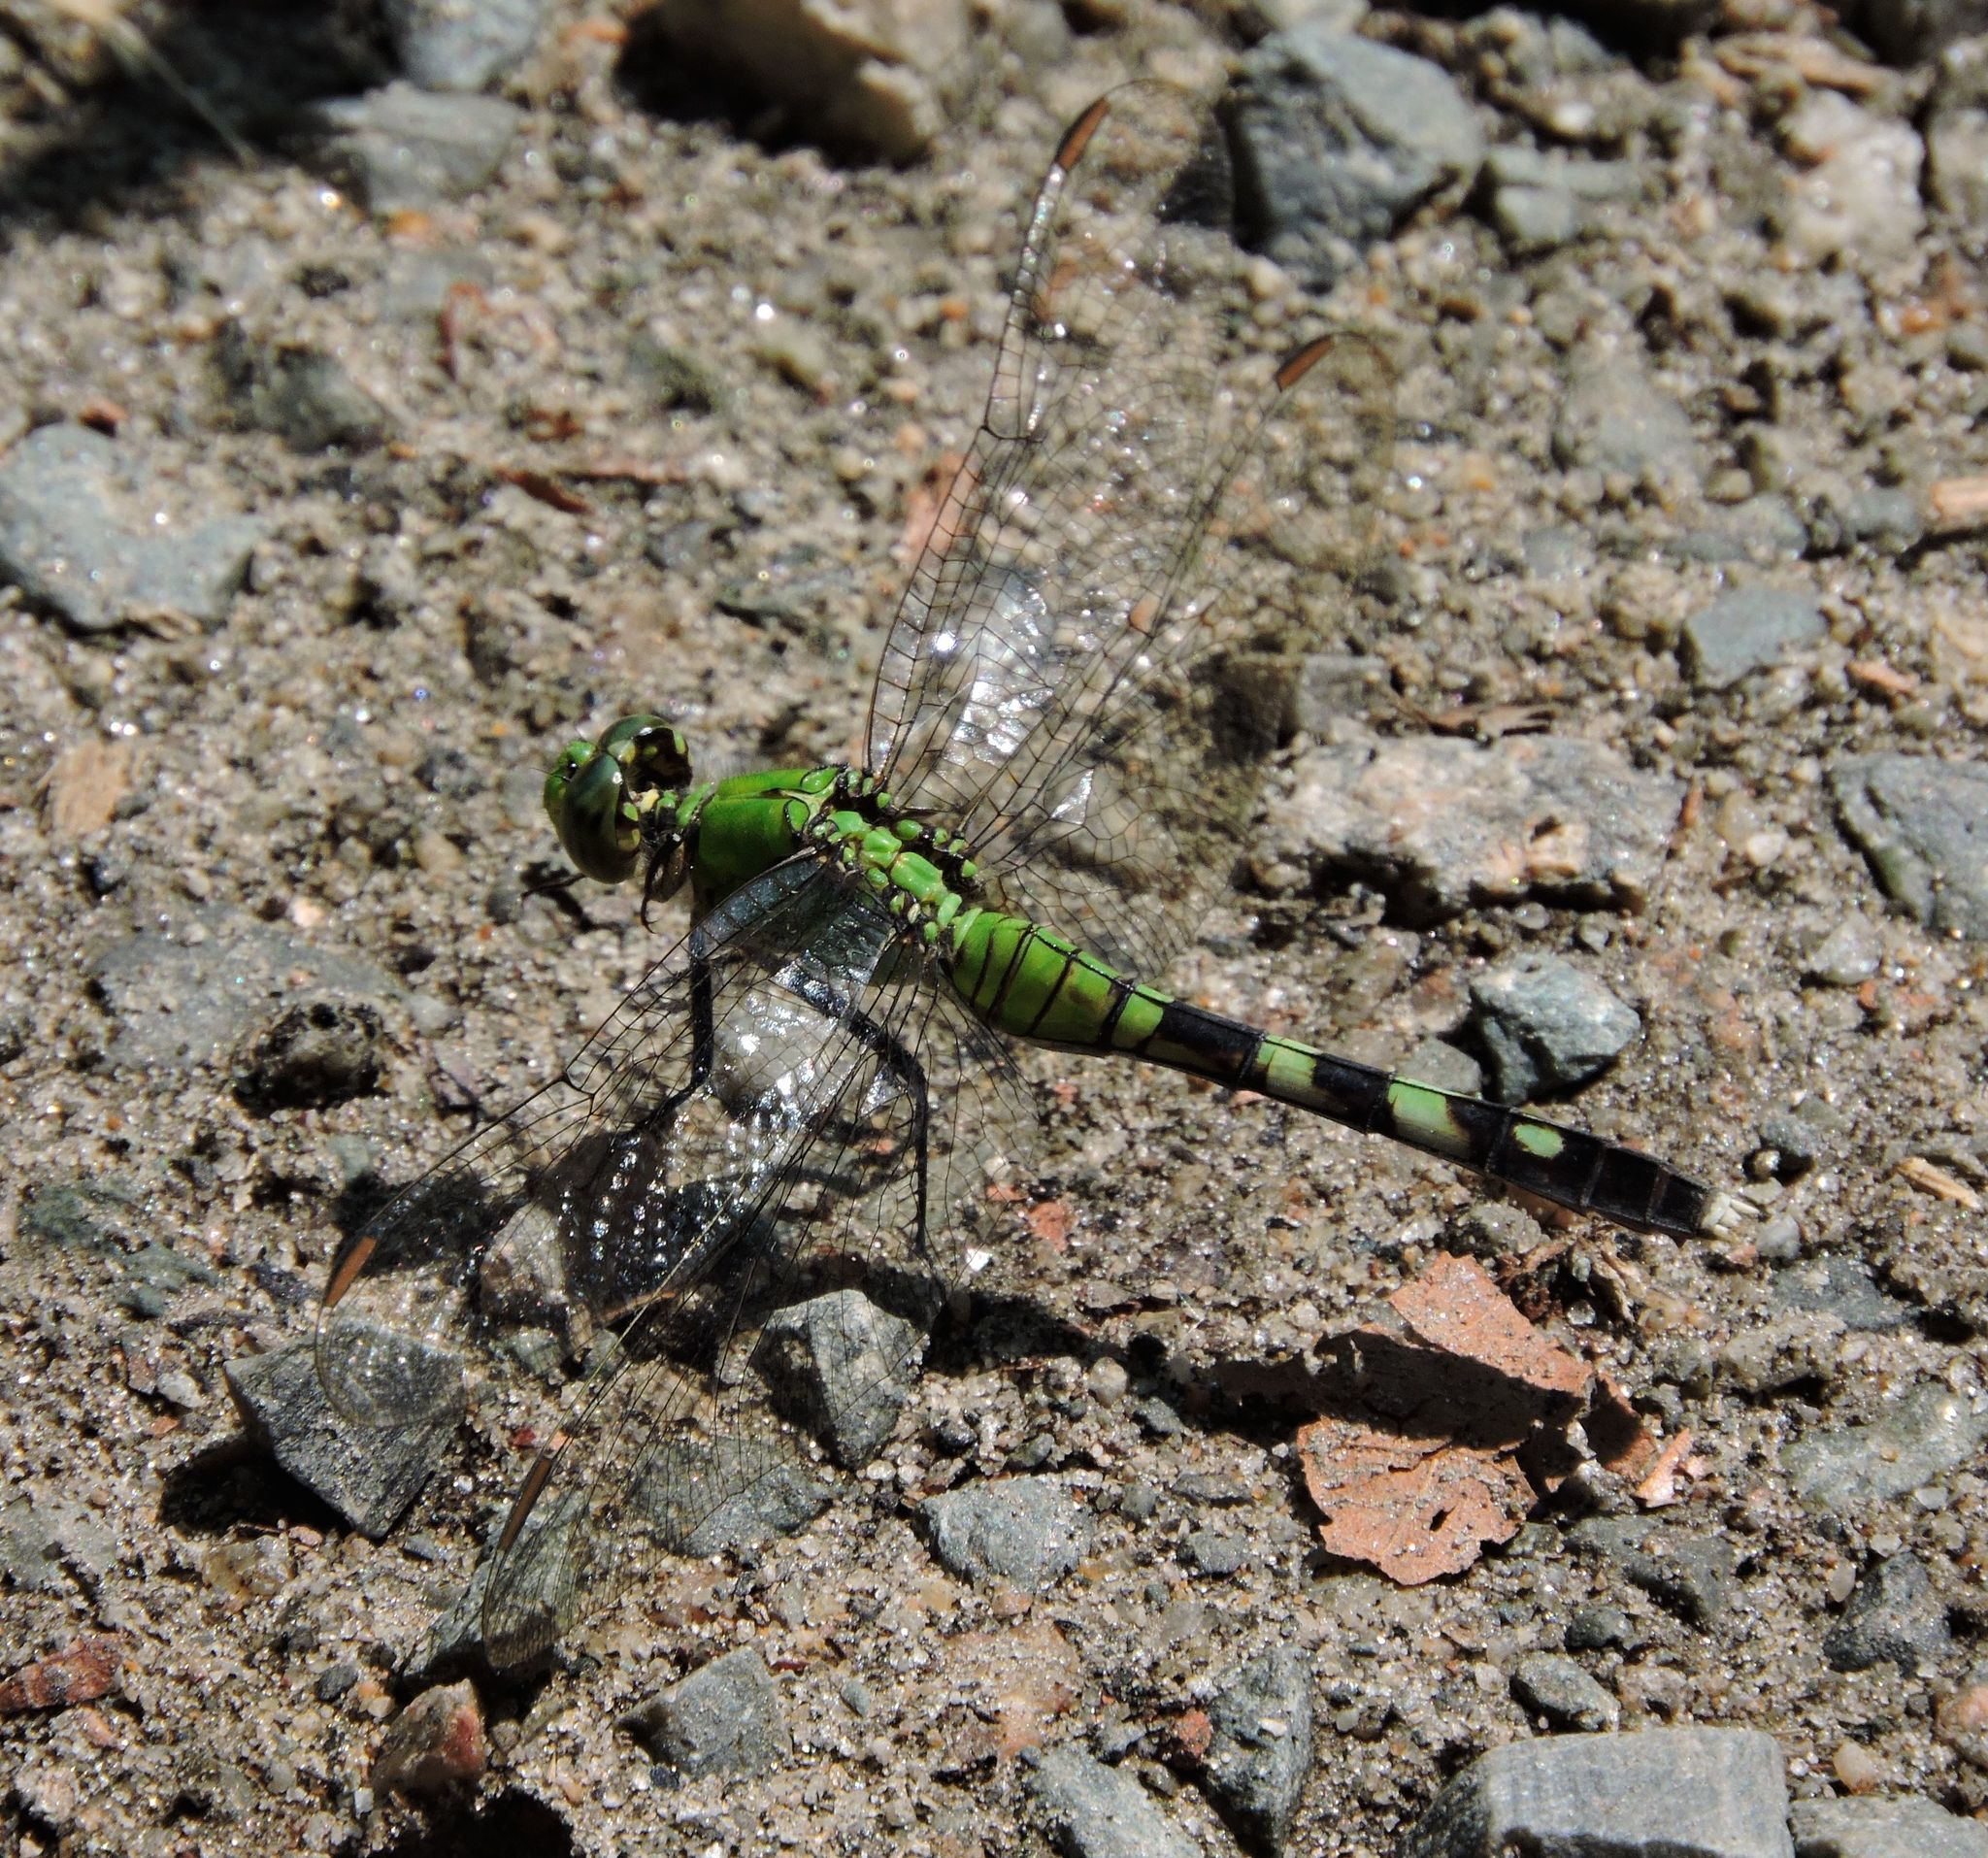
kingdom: Animalia
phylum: Arthropoda
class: Insecta
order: Odonata
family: Libellulidae
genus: Erythemis
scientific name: Erythemis simplicicollis
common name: Eastern pondhawk
